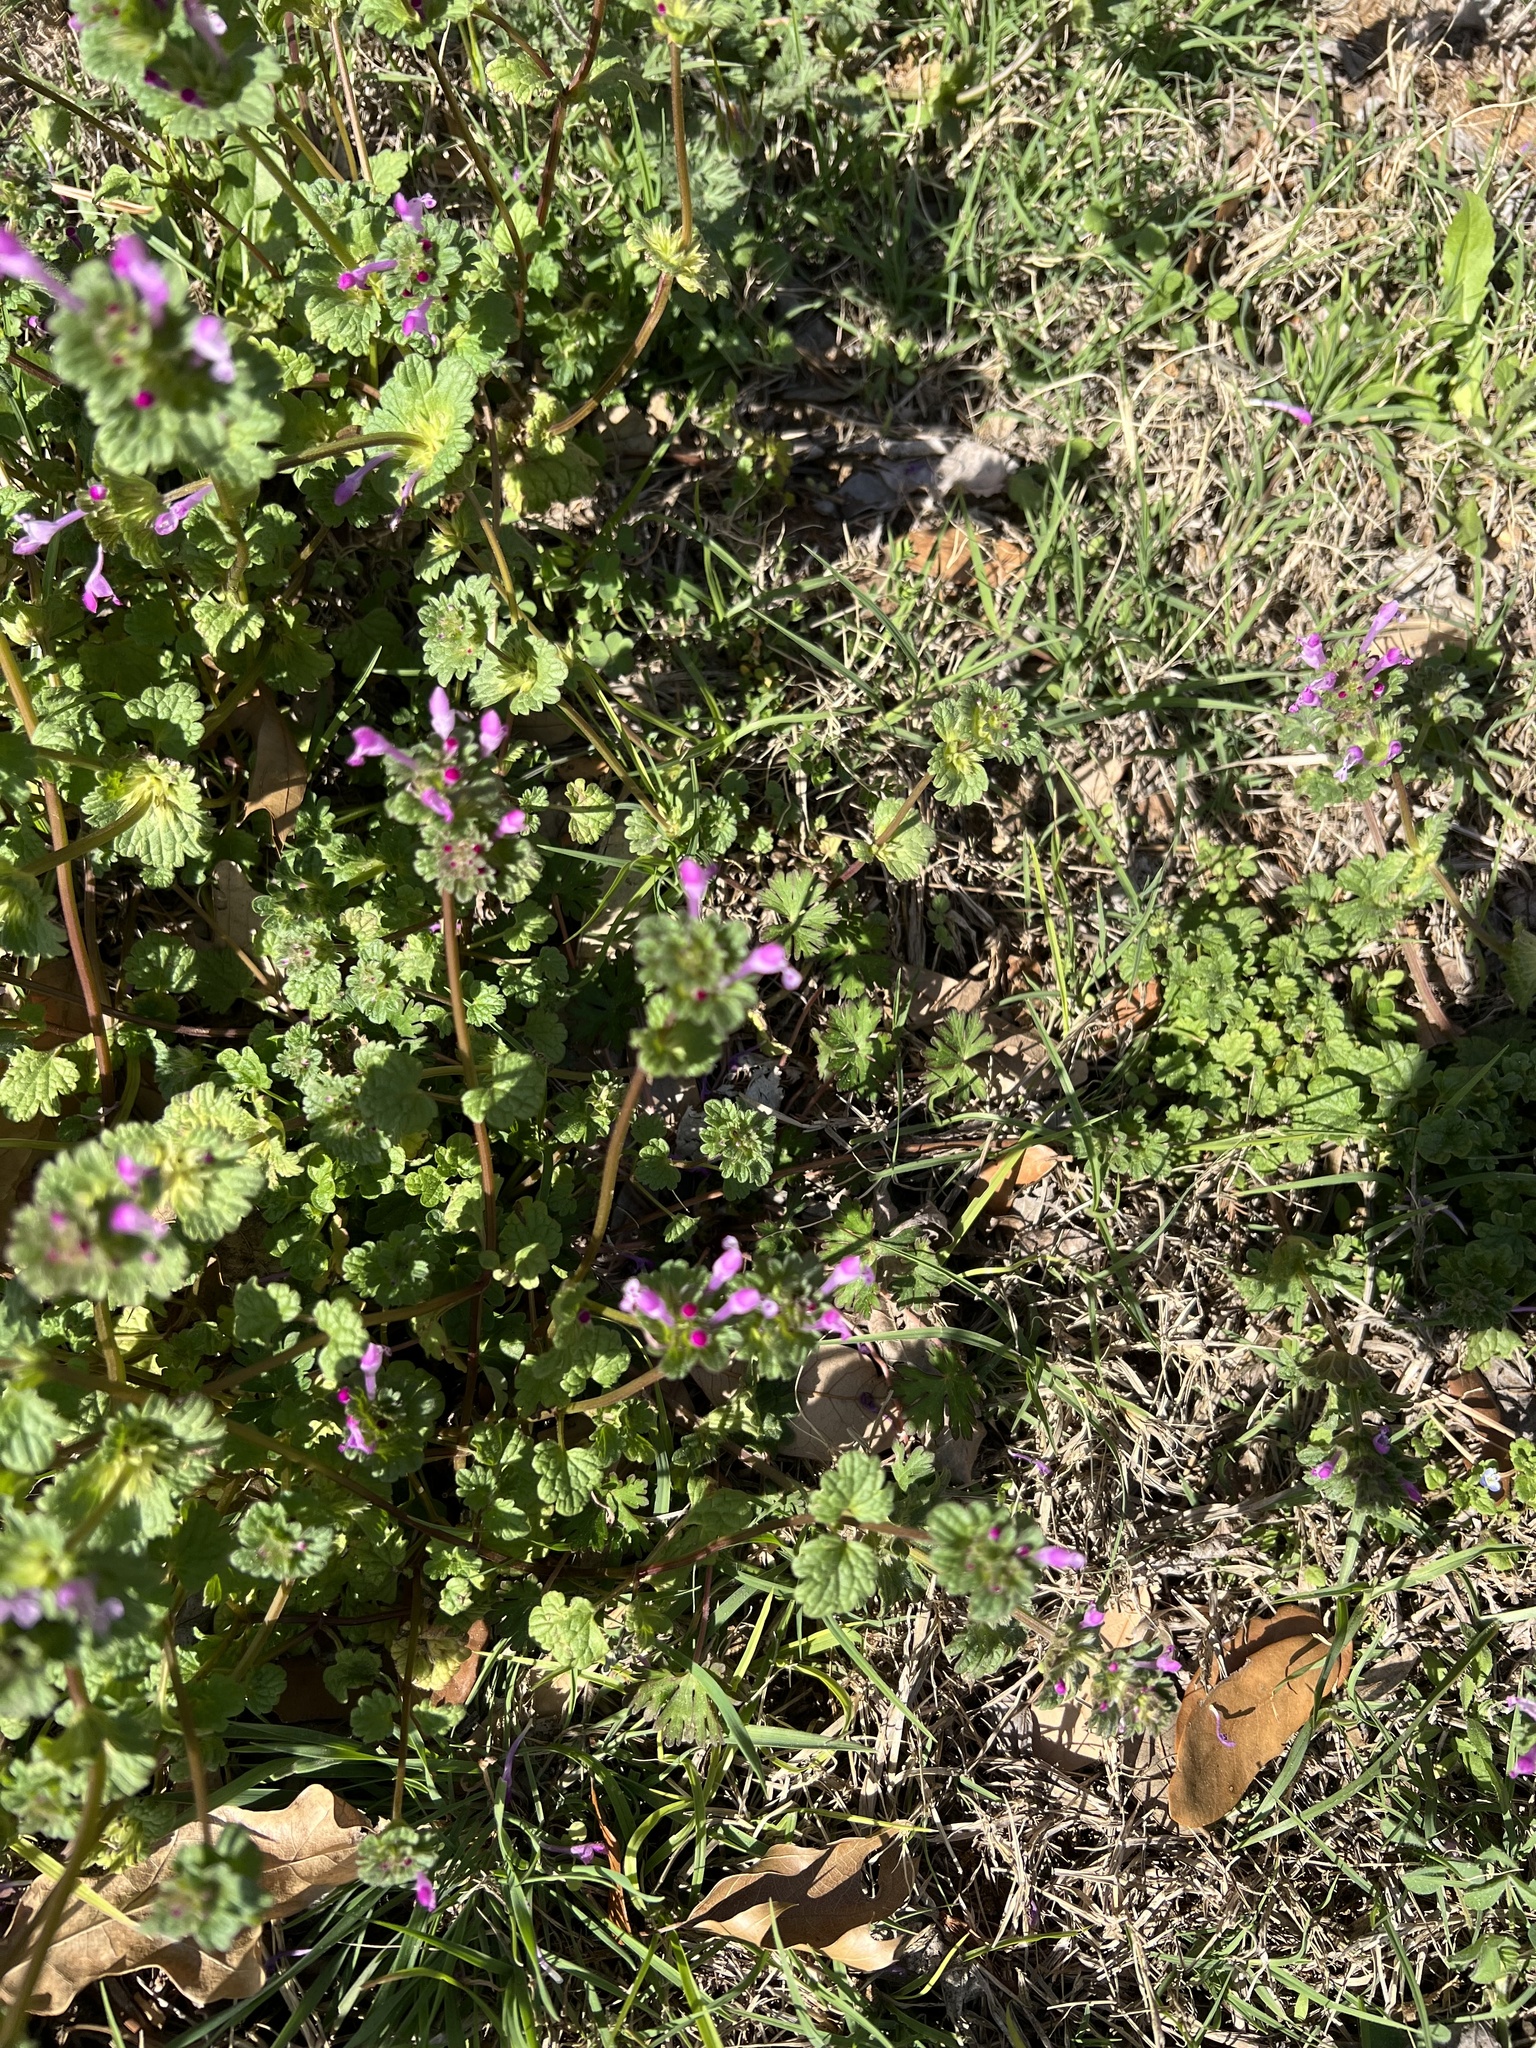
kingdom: Plantae
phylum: Tracheophyta
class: Magnoliopsida
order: Lamiales
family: Lamiaceae
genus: Lamium
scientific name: Lamium amplexicaule
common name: Henbit dead-nettle
